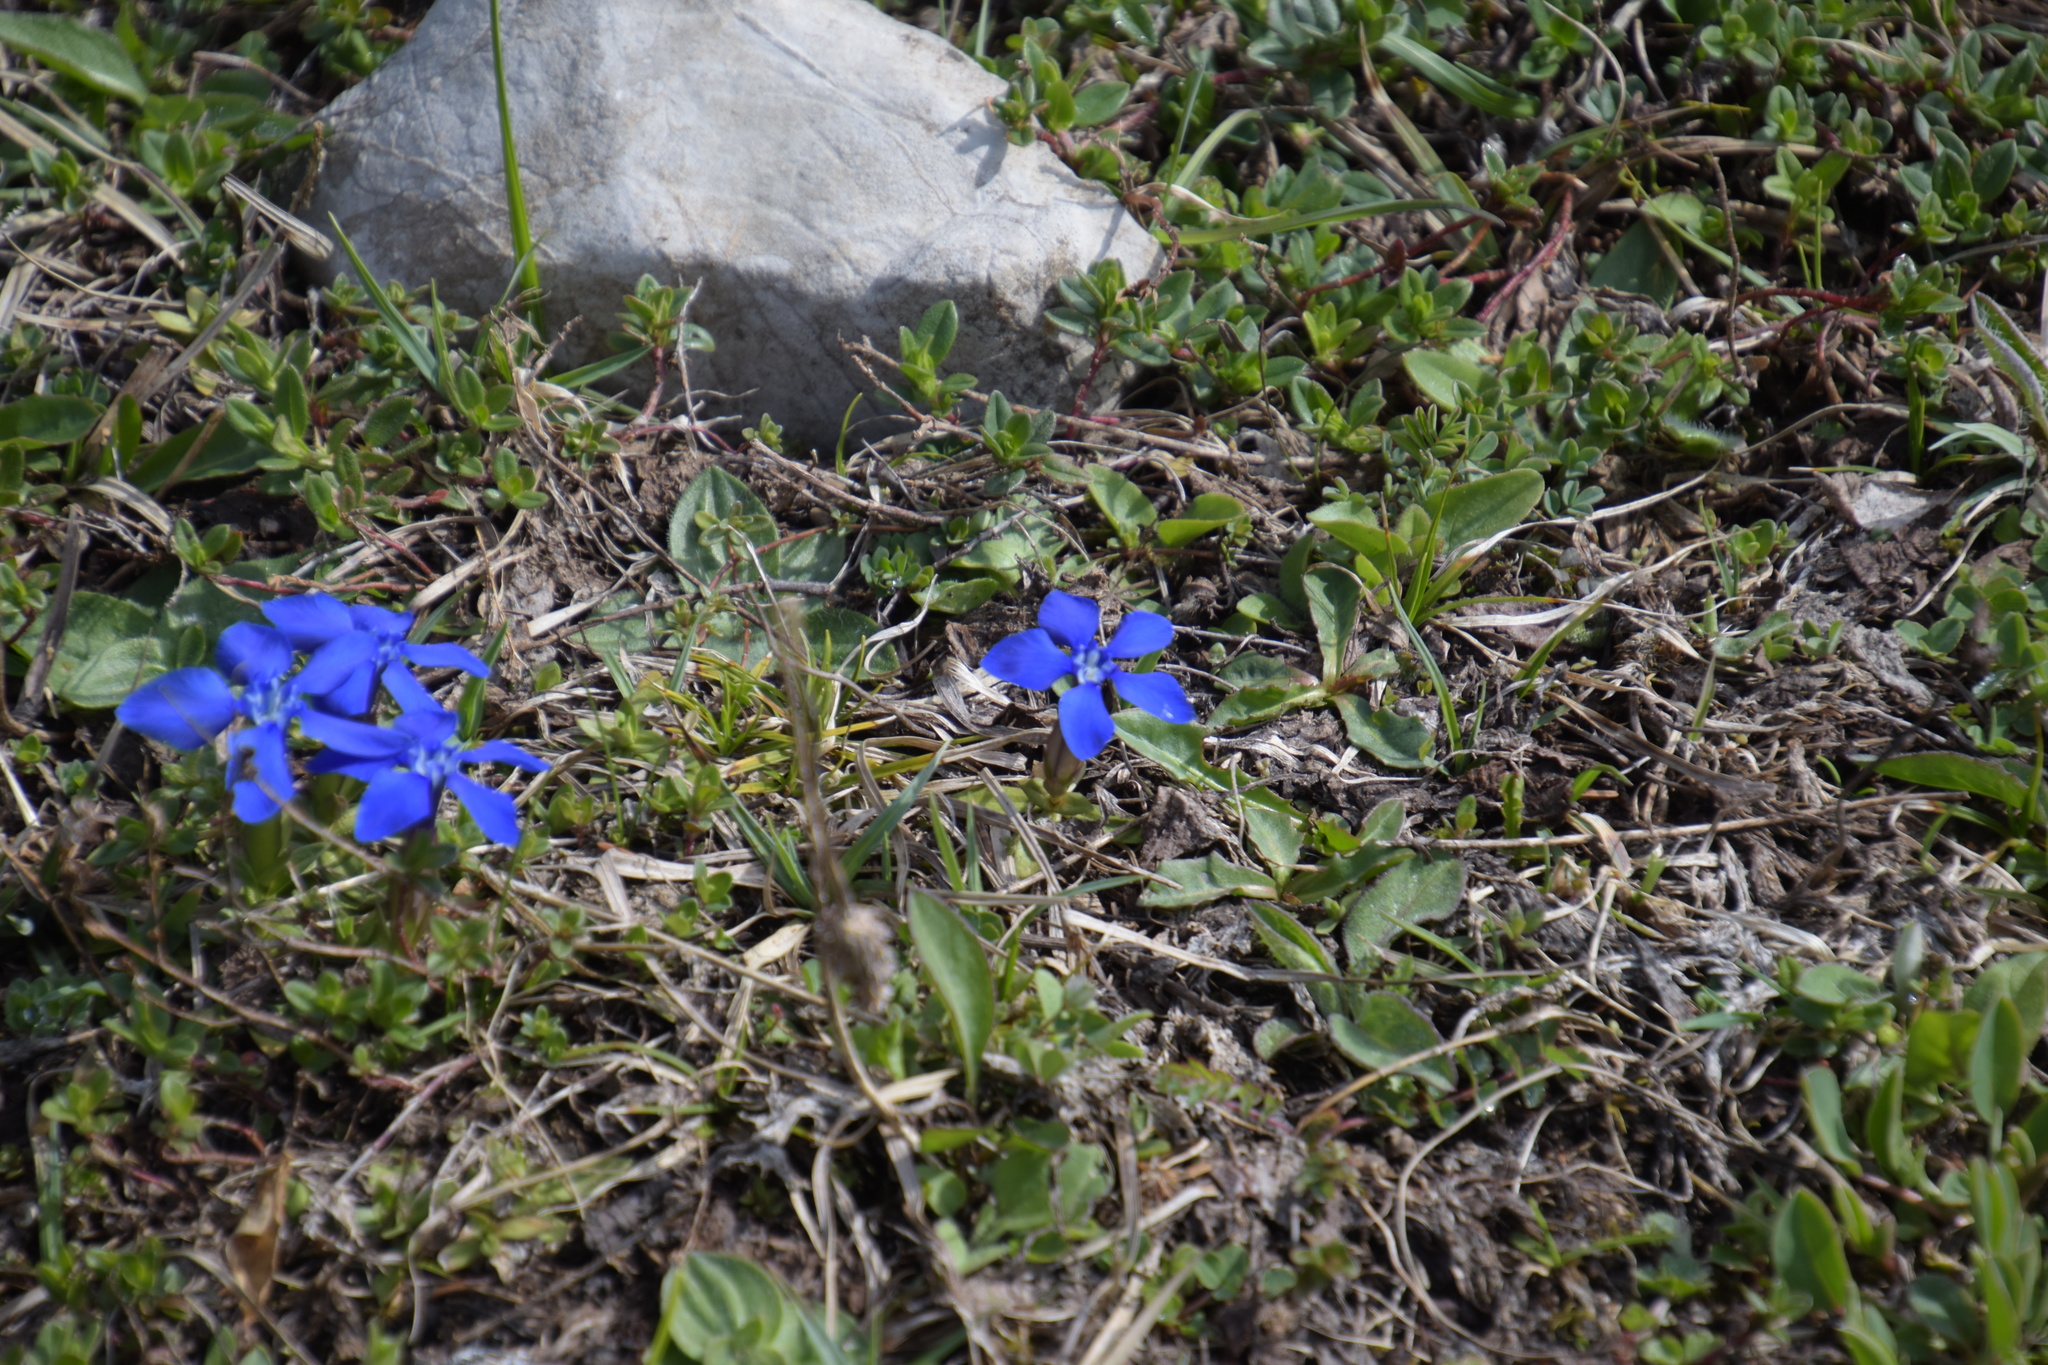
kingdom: Plantae
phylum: Tracheophyta
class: Magnoliopsida
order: Gentianales
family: Gentianaceae
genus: Gentiana
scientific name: Gentiana verna
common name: Spring gentian
